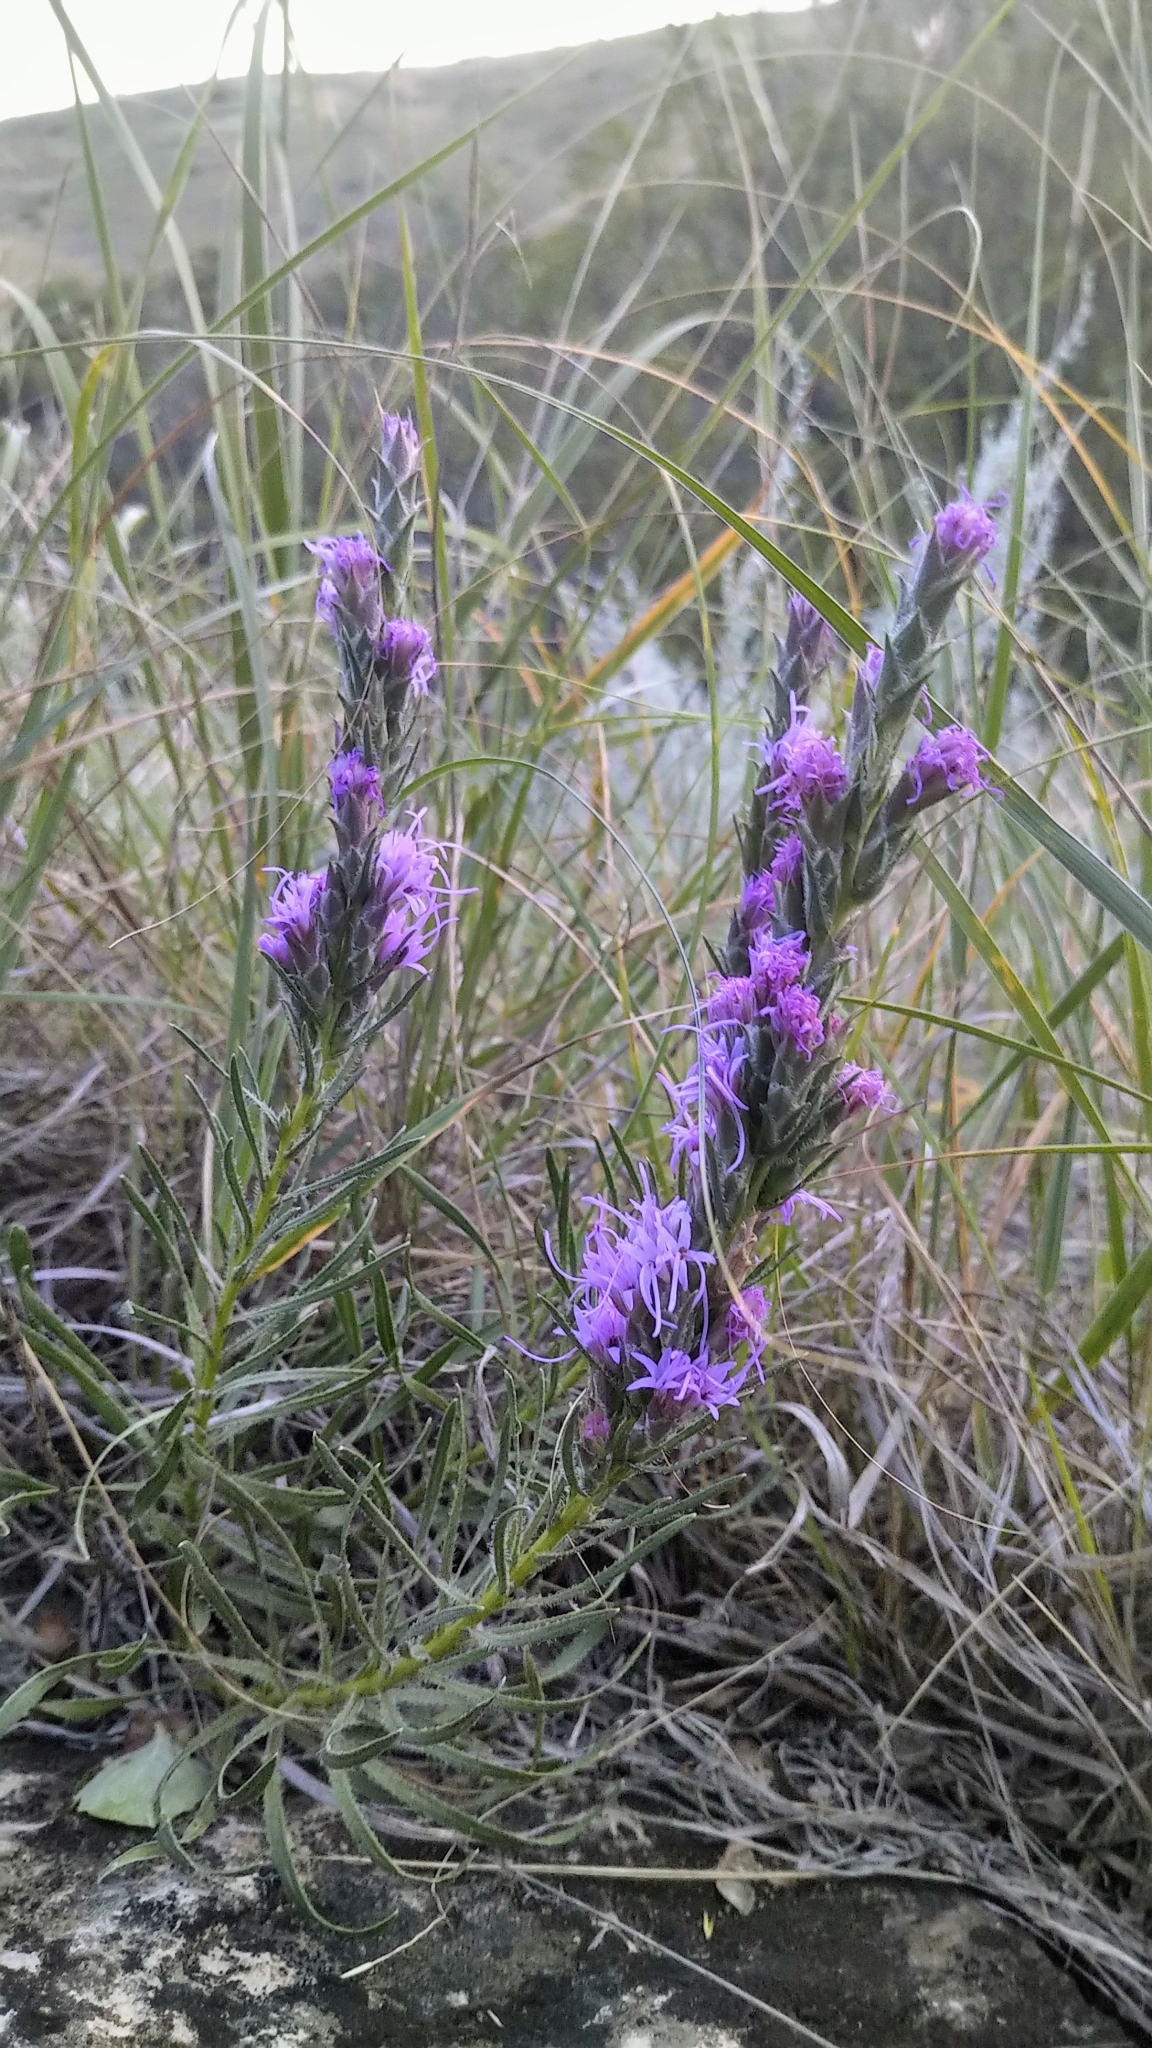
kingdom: Plantae
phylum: Tracheophyta
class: Magnoliopsida
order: Asterales
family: Asteraceae
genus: Liatris
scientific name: Liatris punctata
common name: Dotted gayfeather
